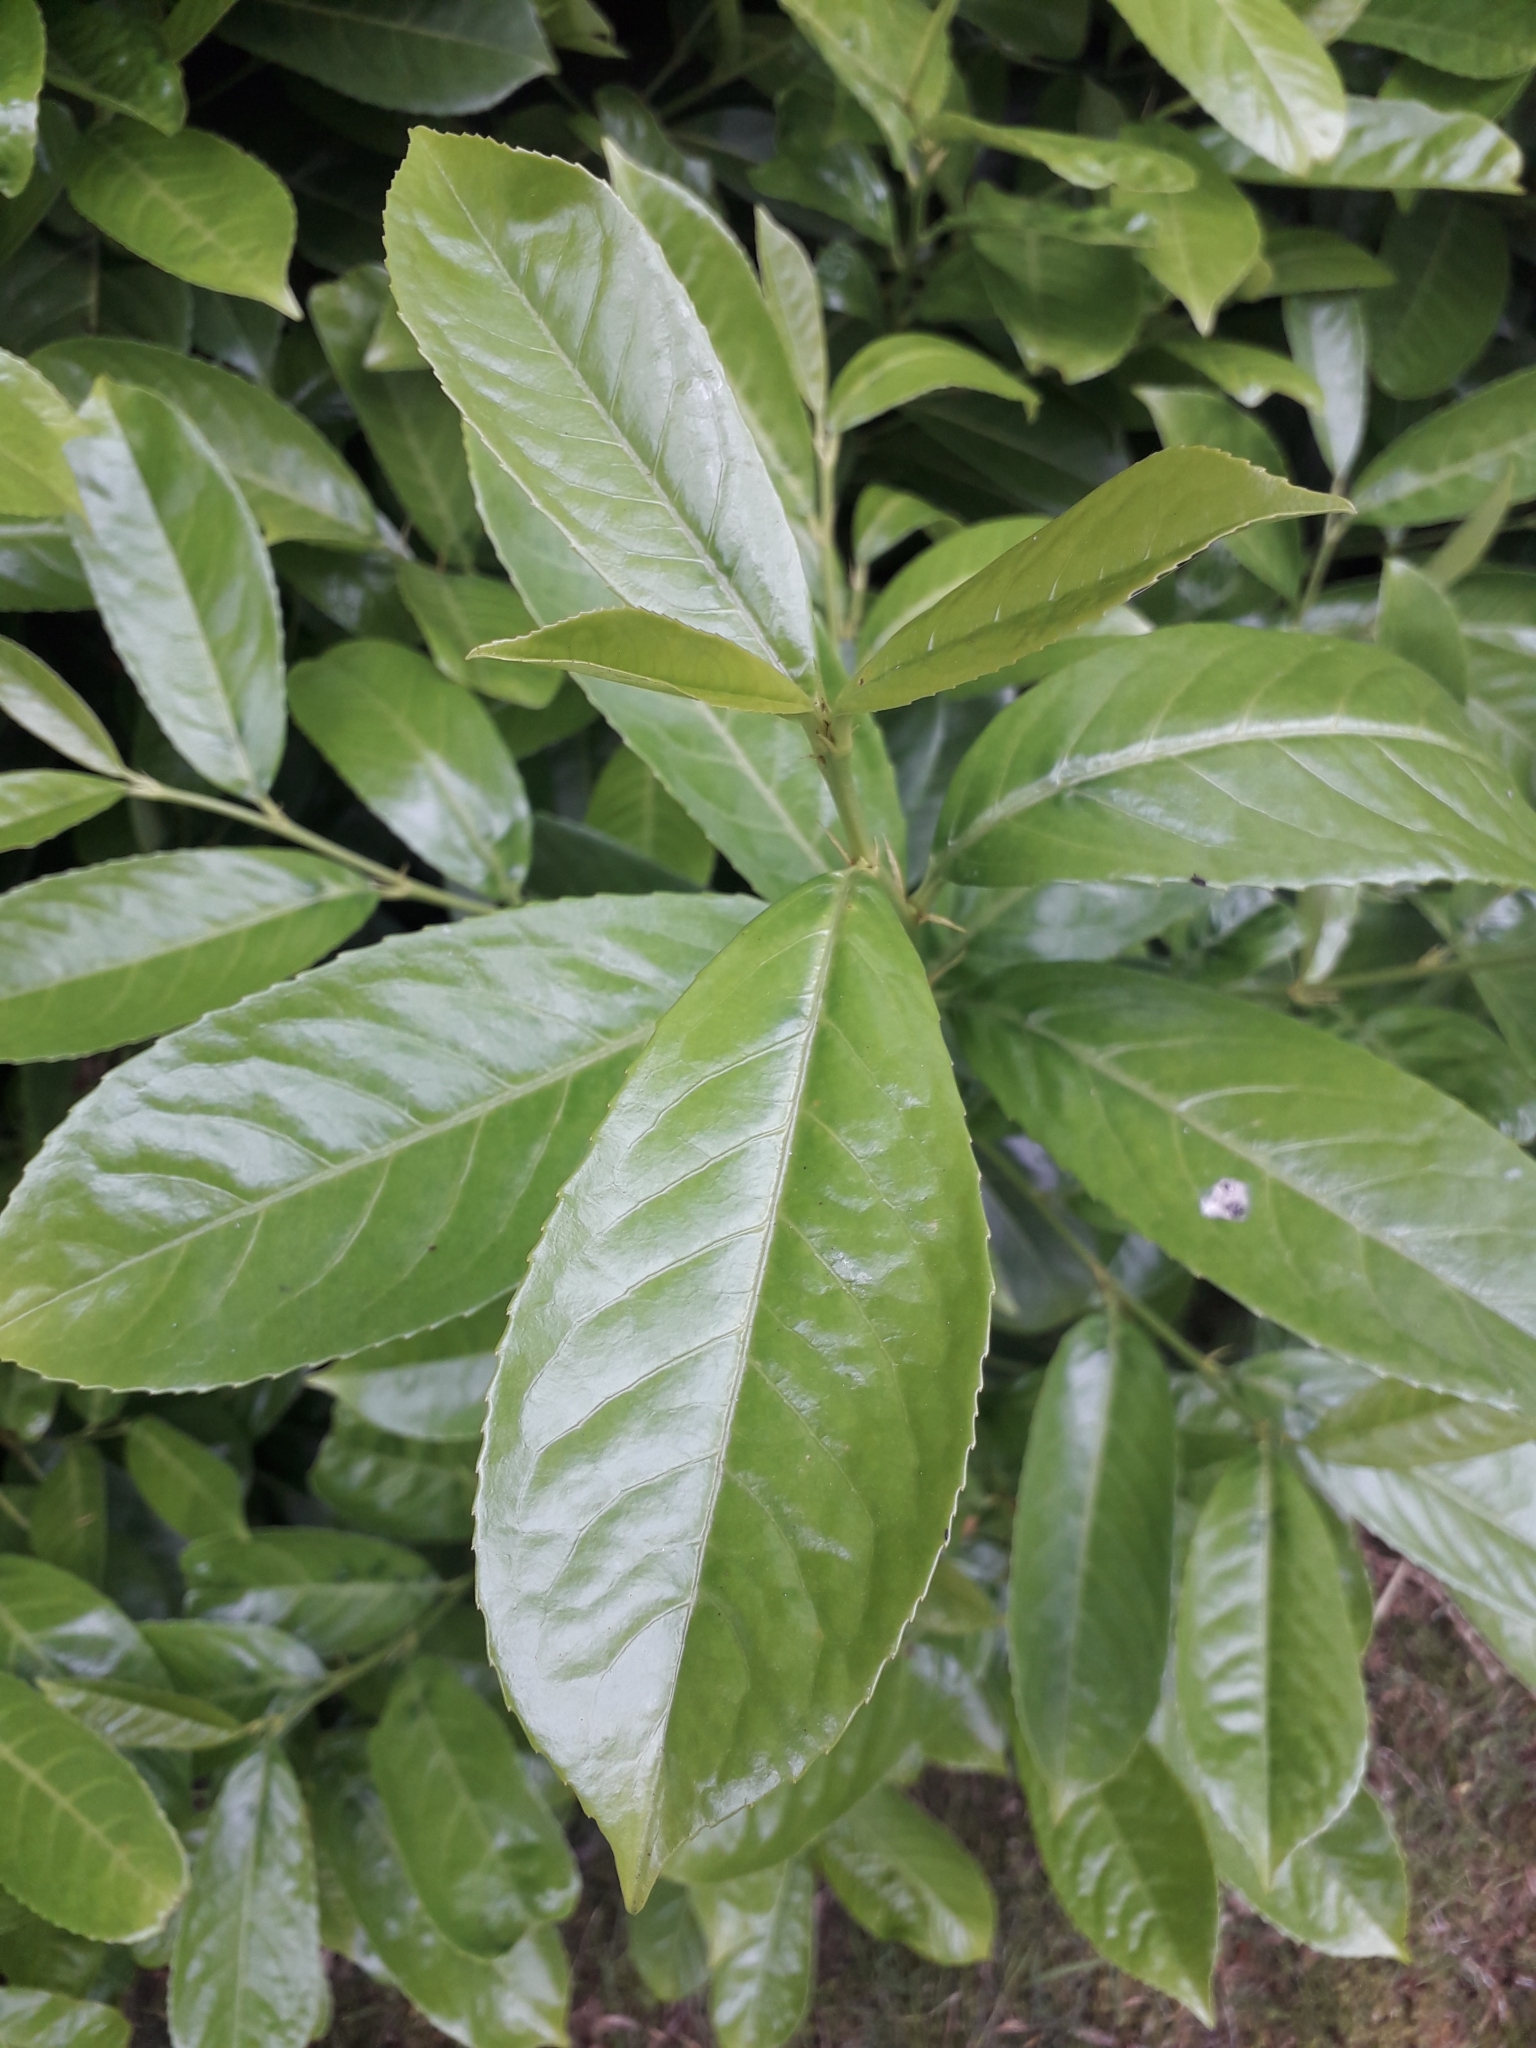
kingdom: Plantae
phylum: Tracheophyta
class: Magnoliopsida
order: Rosales
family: Rosaceae
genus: Prunus
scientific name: Prunus laurocerasus
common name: Cherry laurel
